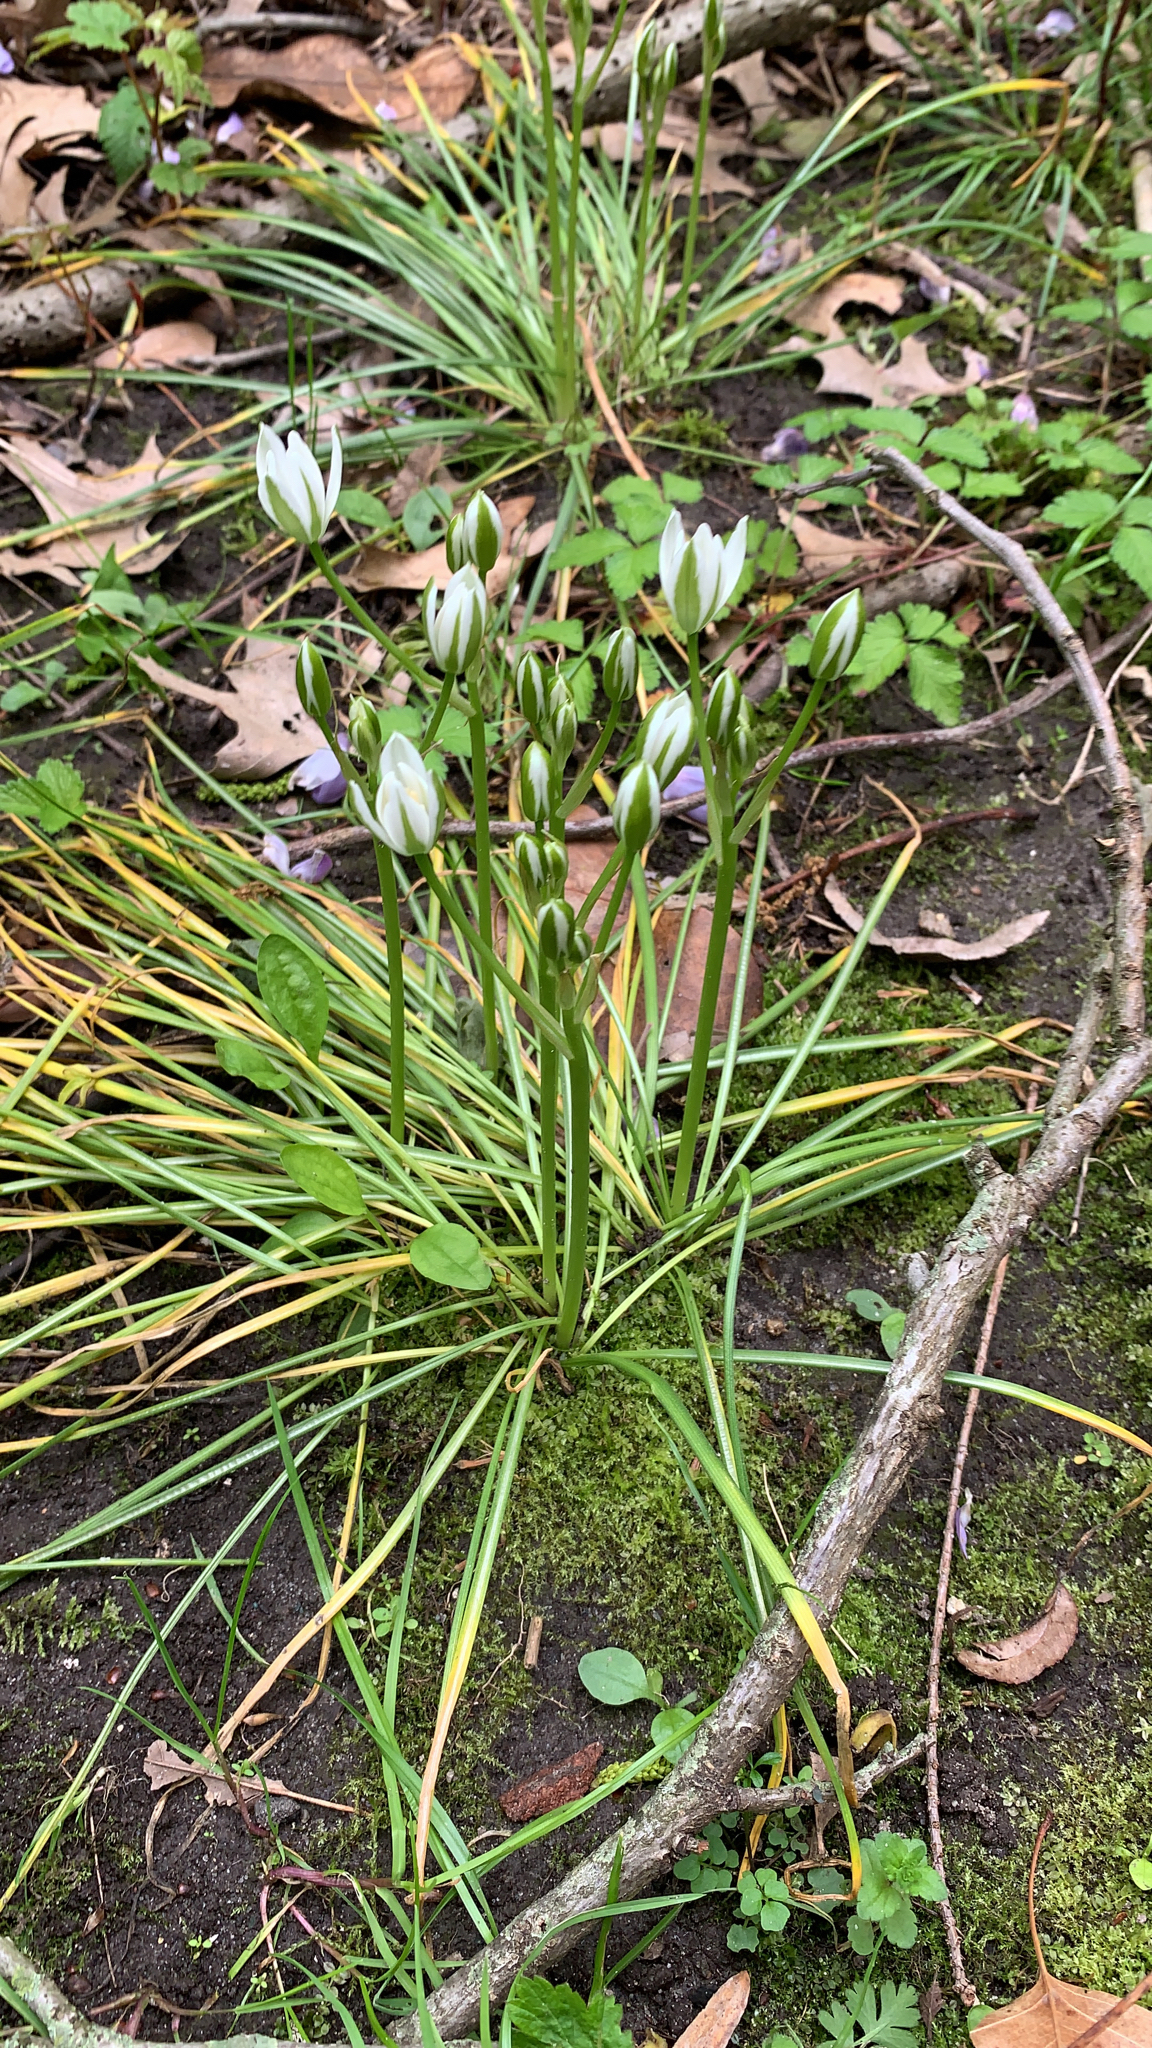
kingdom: Plantae
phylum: Tracheophyta
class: Liliopsida
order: Asparagales
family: Asparagaceae
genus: Ornithogalum
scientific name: Ornithogalum umbellatum
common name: Garden star-of-bethlehem
